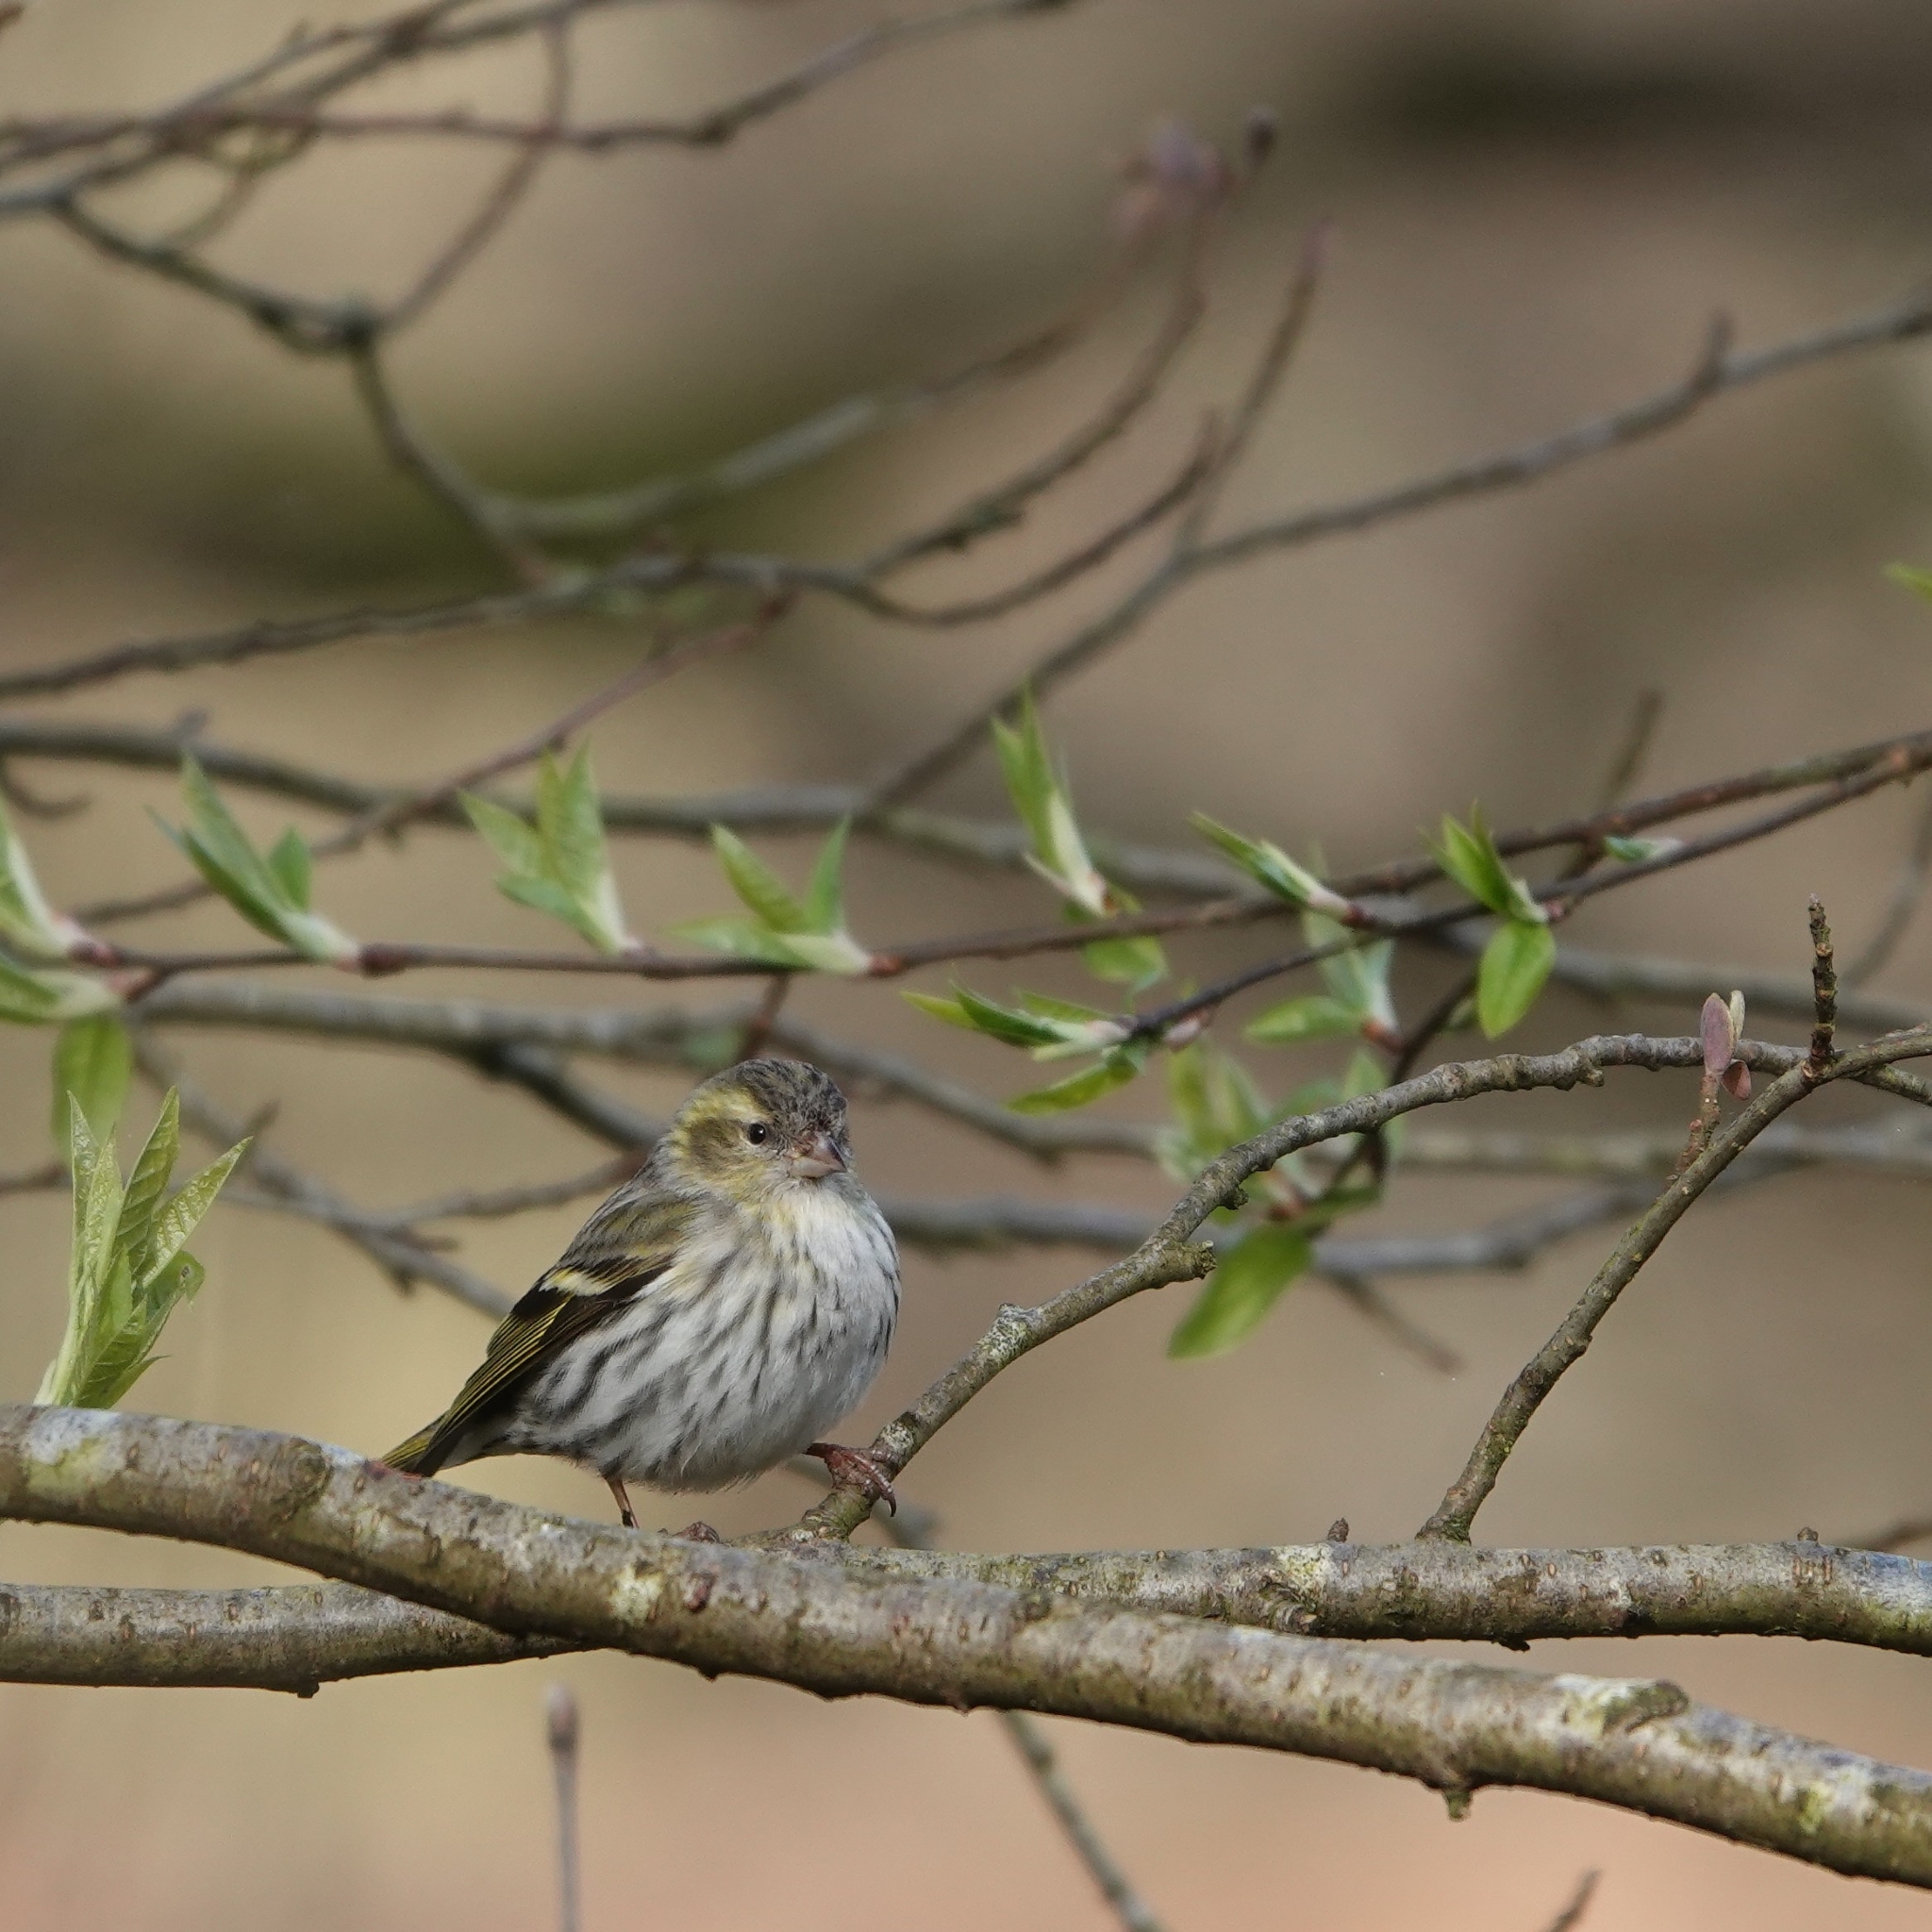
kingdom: Animalia
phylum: Chordata
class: Aves
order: Passeriformes
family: Fringillidae
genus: Spinus
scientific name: Spinus spinus
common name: Eurasian siskin
